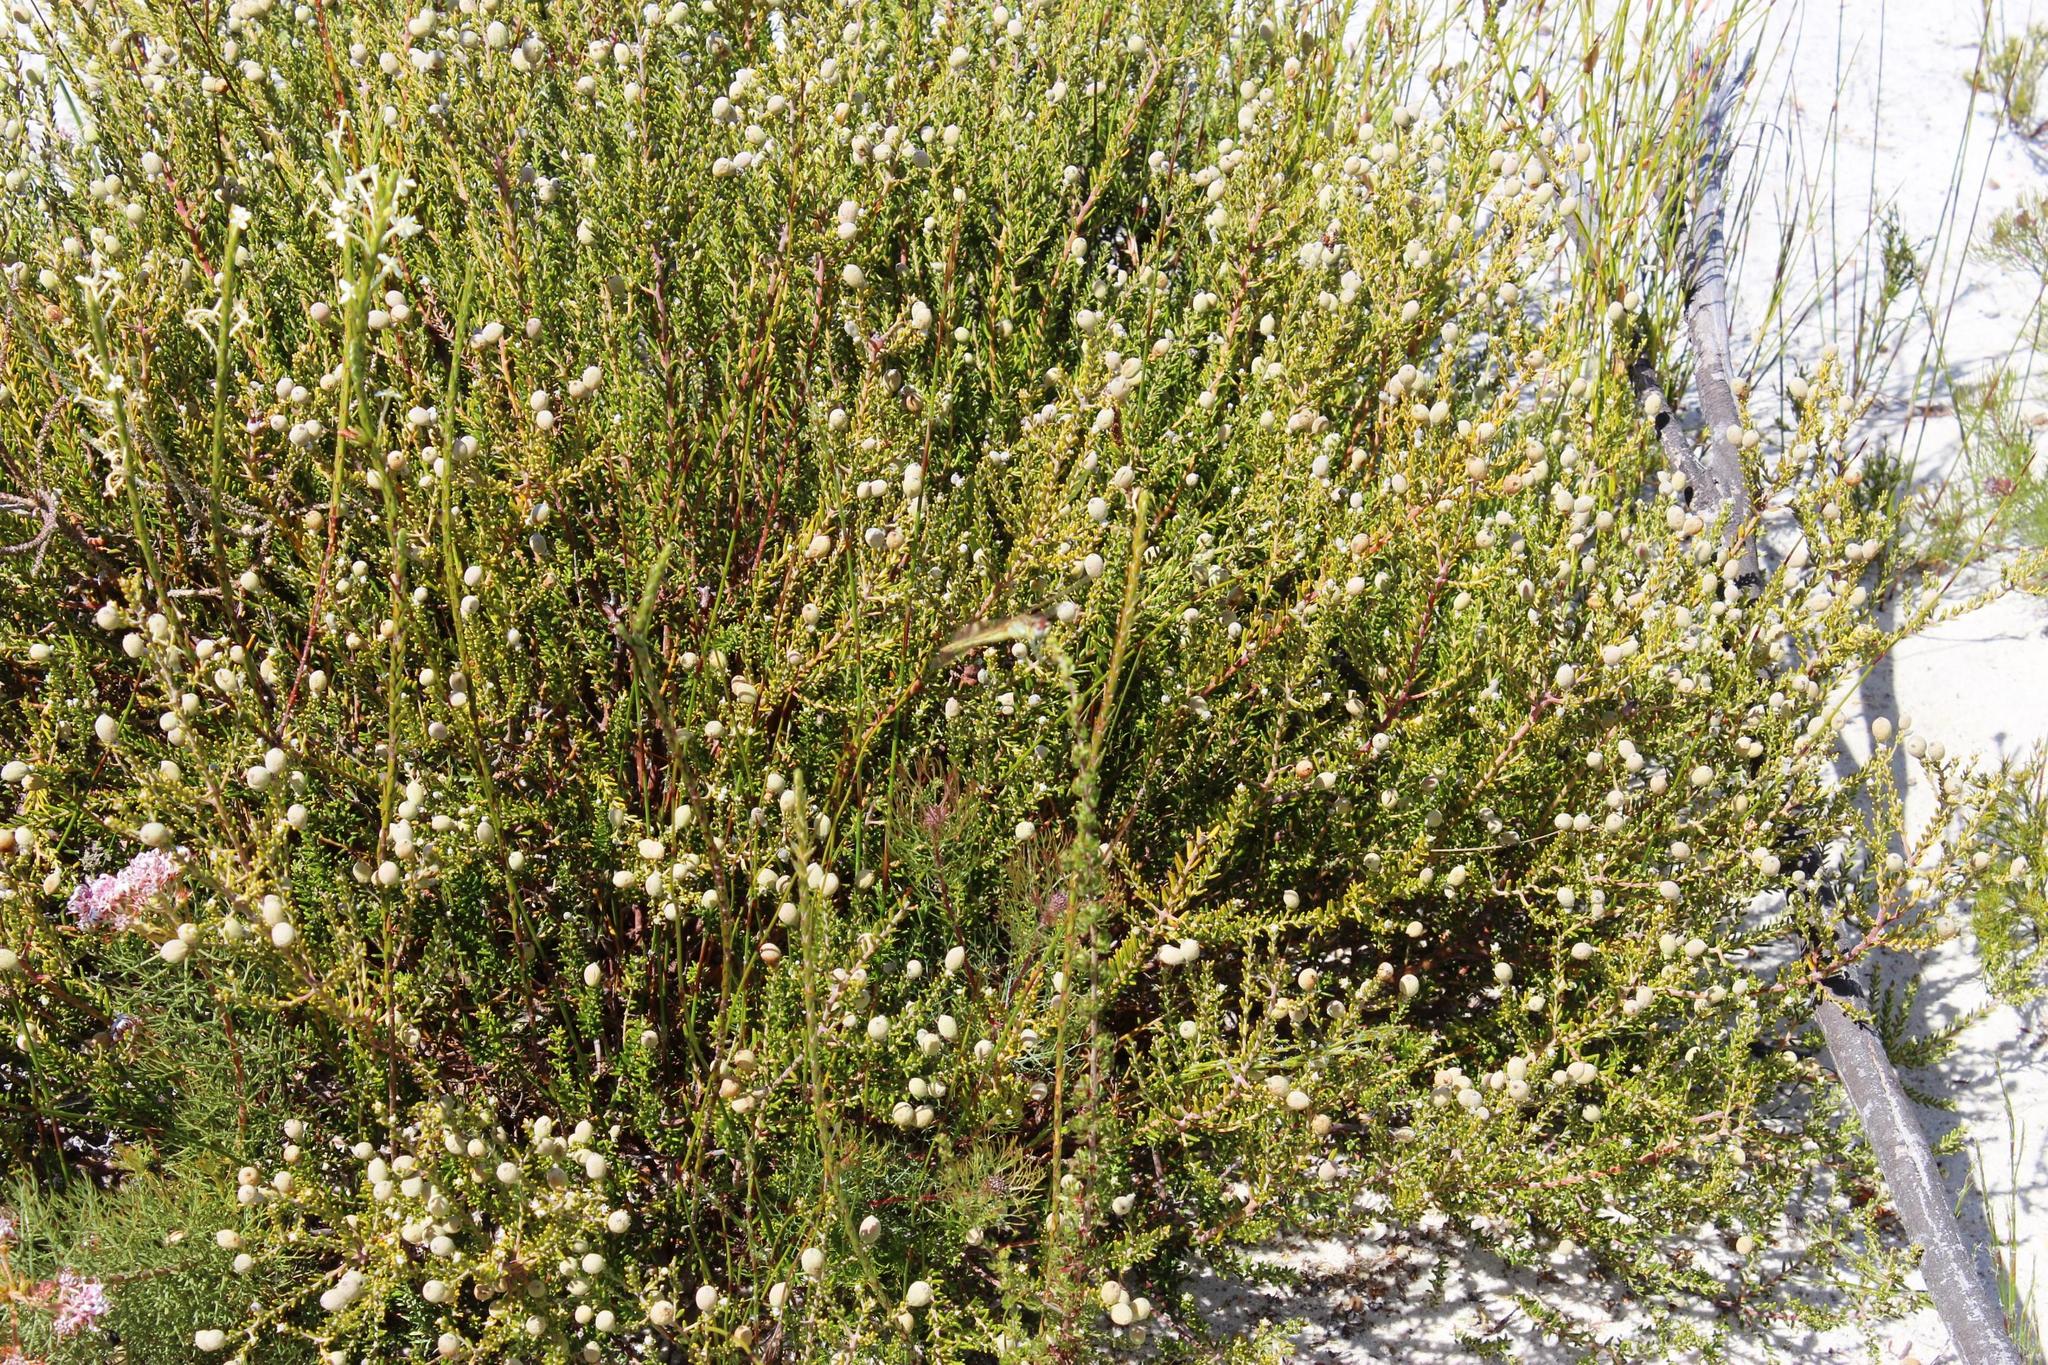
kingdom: Plantae
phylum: Tracheophyta
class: Magnoliopsida
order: Rosales
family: Rhamnaceae
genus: Phylica
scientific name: Phylica cephalantha
